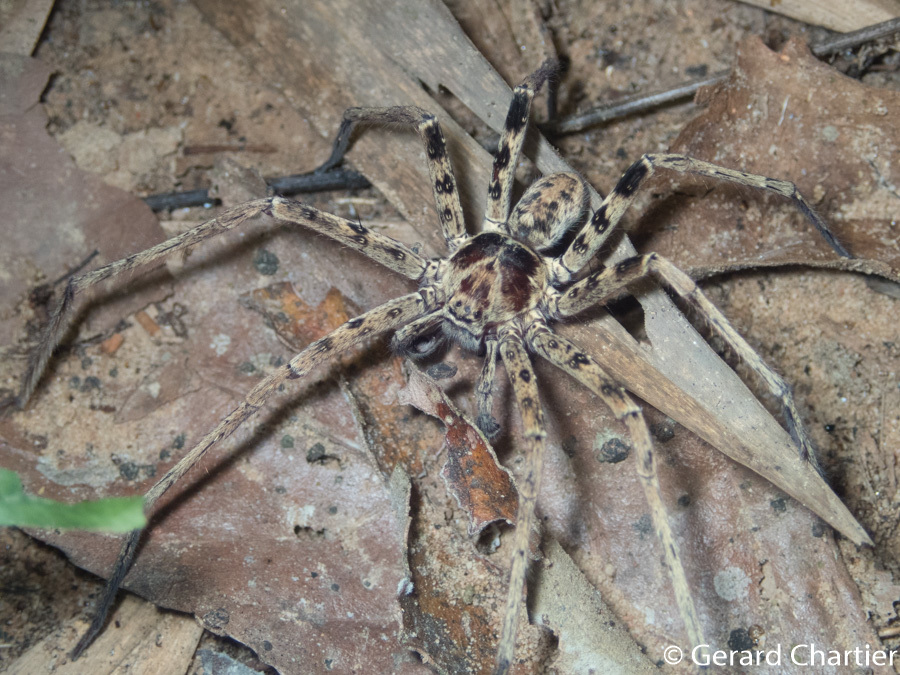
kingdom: Animalia
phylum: Arthropoda
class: Arachnida
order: Araneae
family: Sparassidae
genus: Heteropoda
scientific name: Heteropoda venatoria
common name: Huntsman spider
